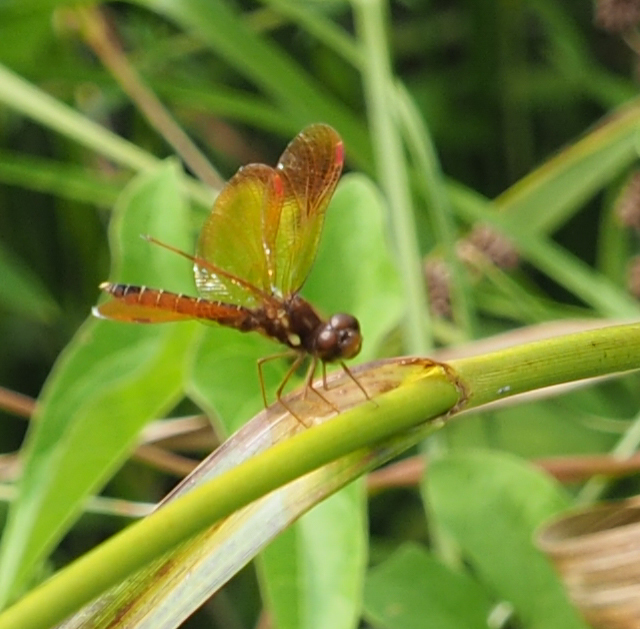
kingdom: Animalia
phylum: Arthropoda
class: Insecta
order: Odonata
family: Libellulidae
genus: Perithemis
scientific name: Perithemis tenera
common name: Eastern amberwing
